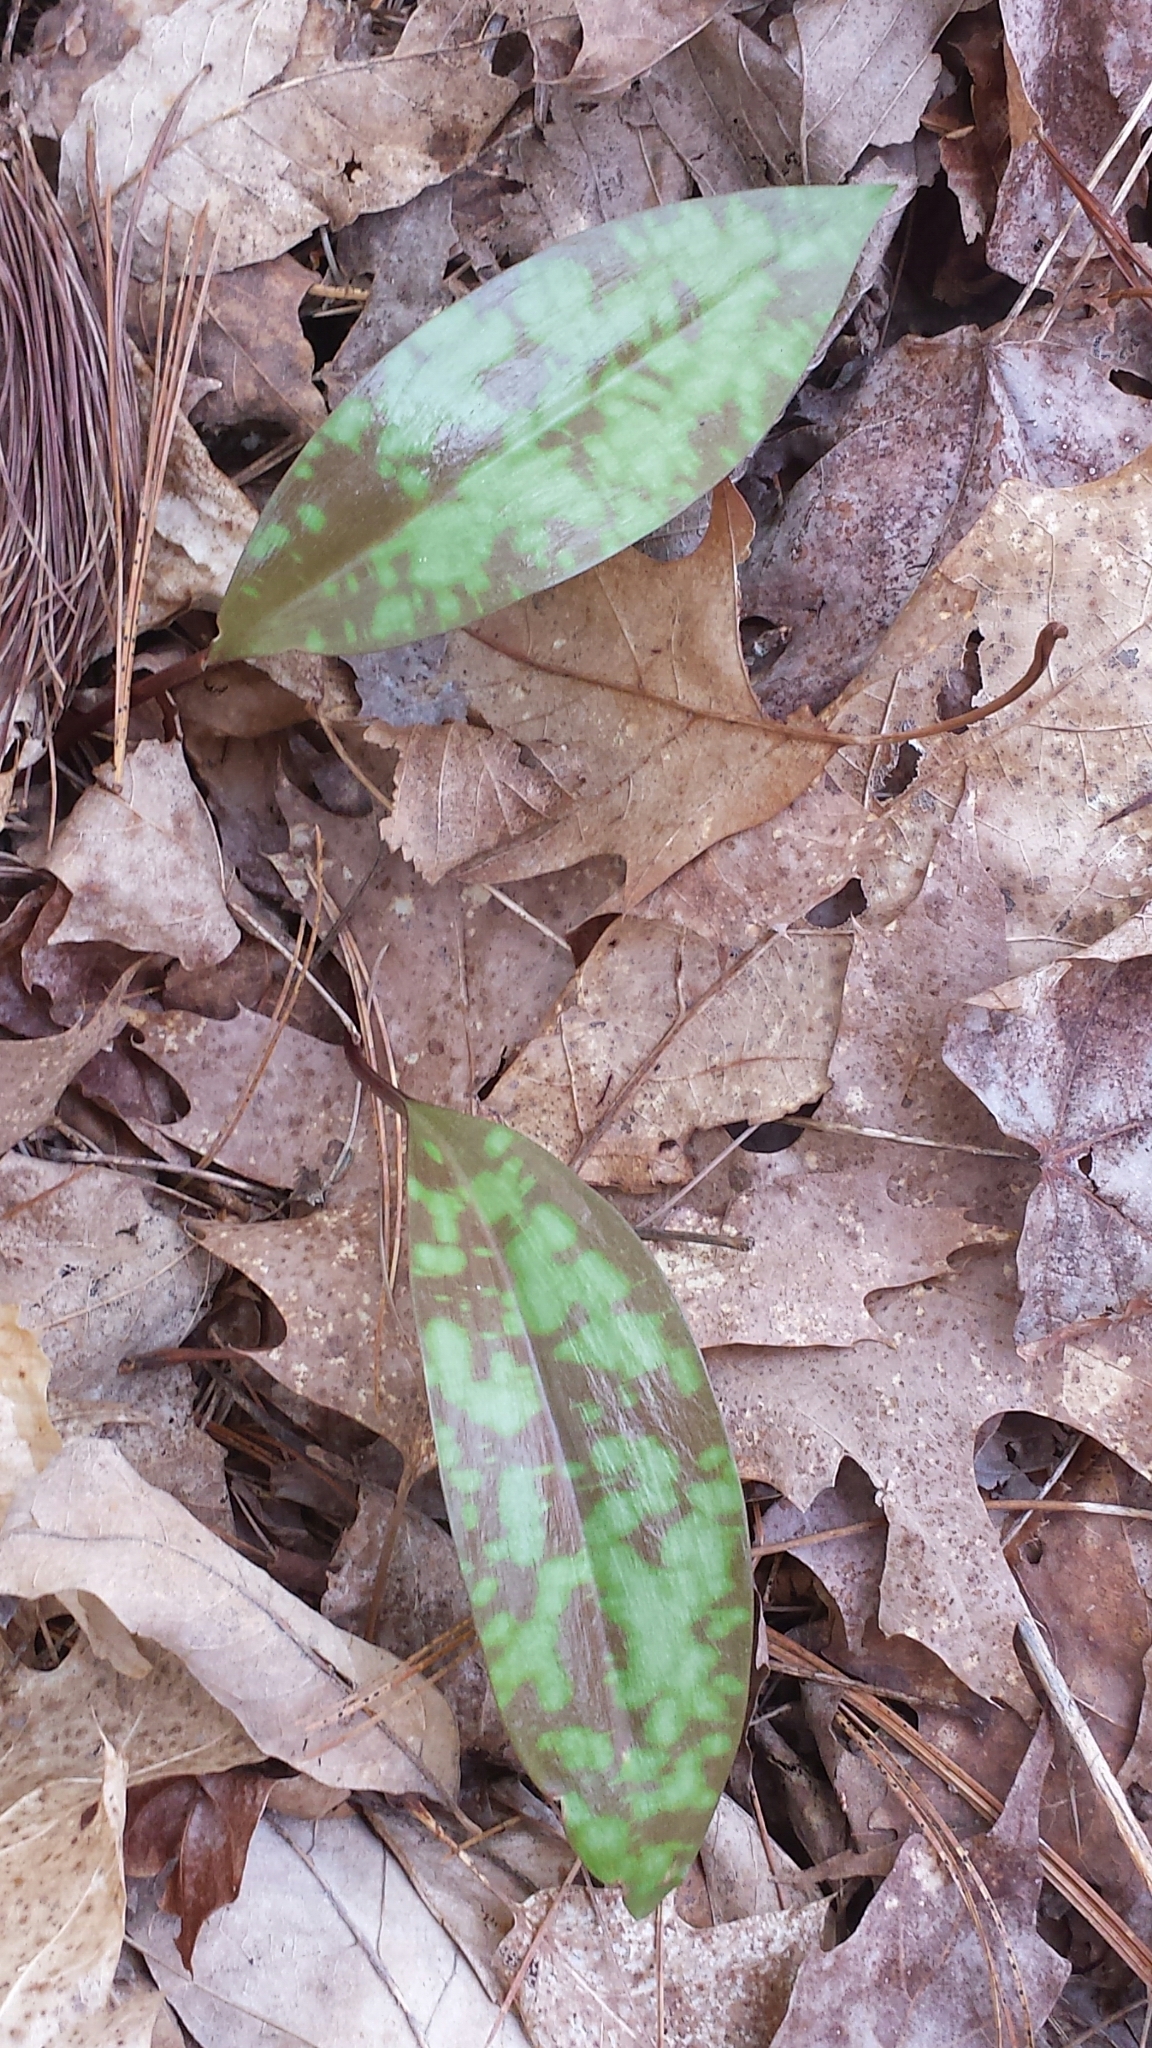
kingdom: Plantae
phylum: Tracheophyta
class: Liliopsida
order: Liliales
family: Liliaceae
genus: Erythronium
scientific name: Erythronium americanum
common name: Yellow adder's-tongue
